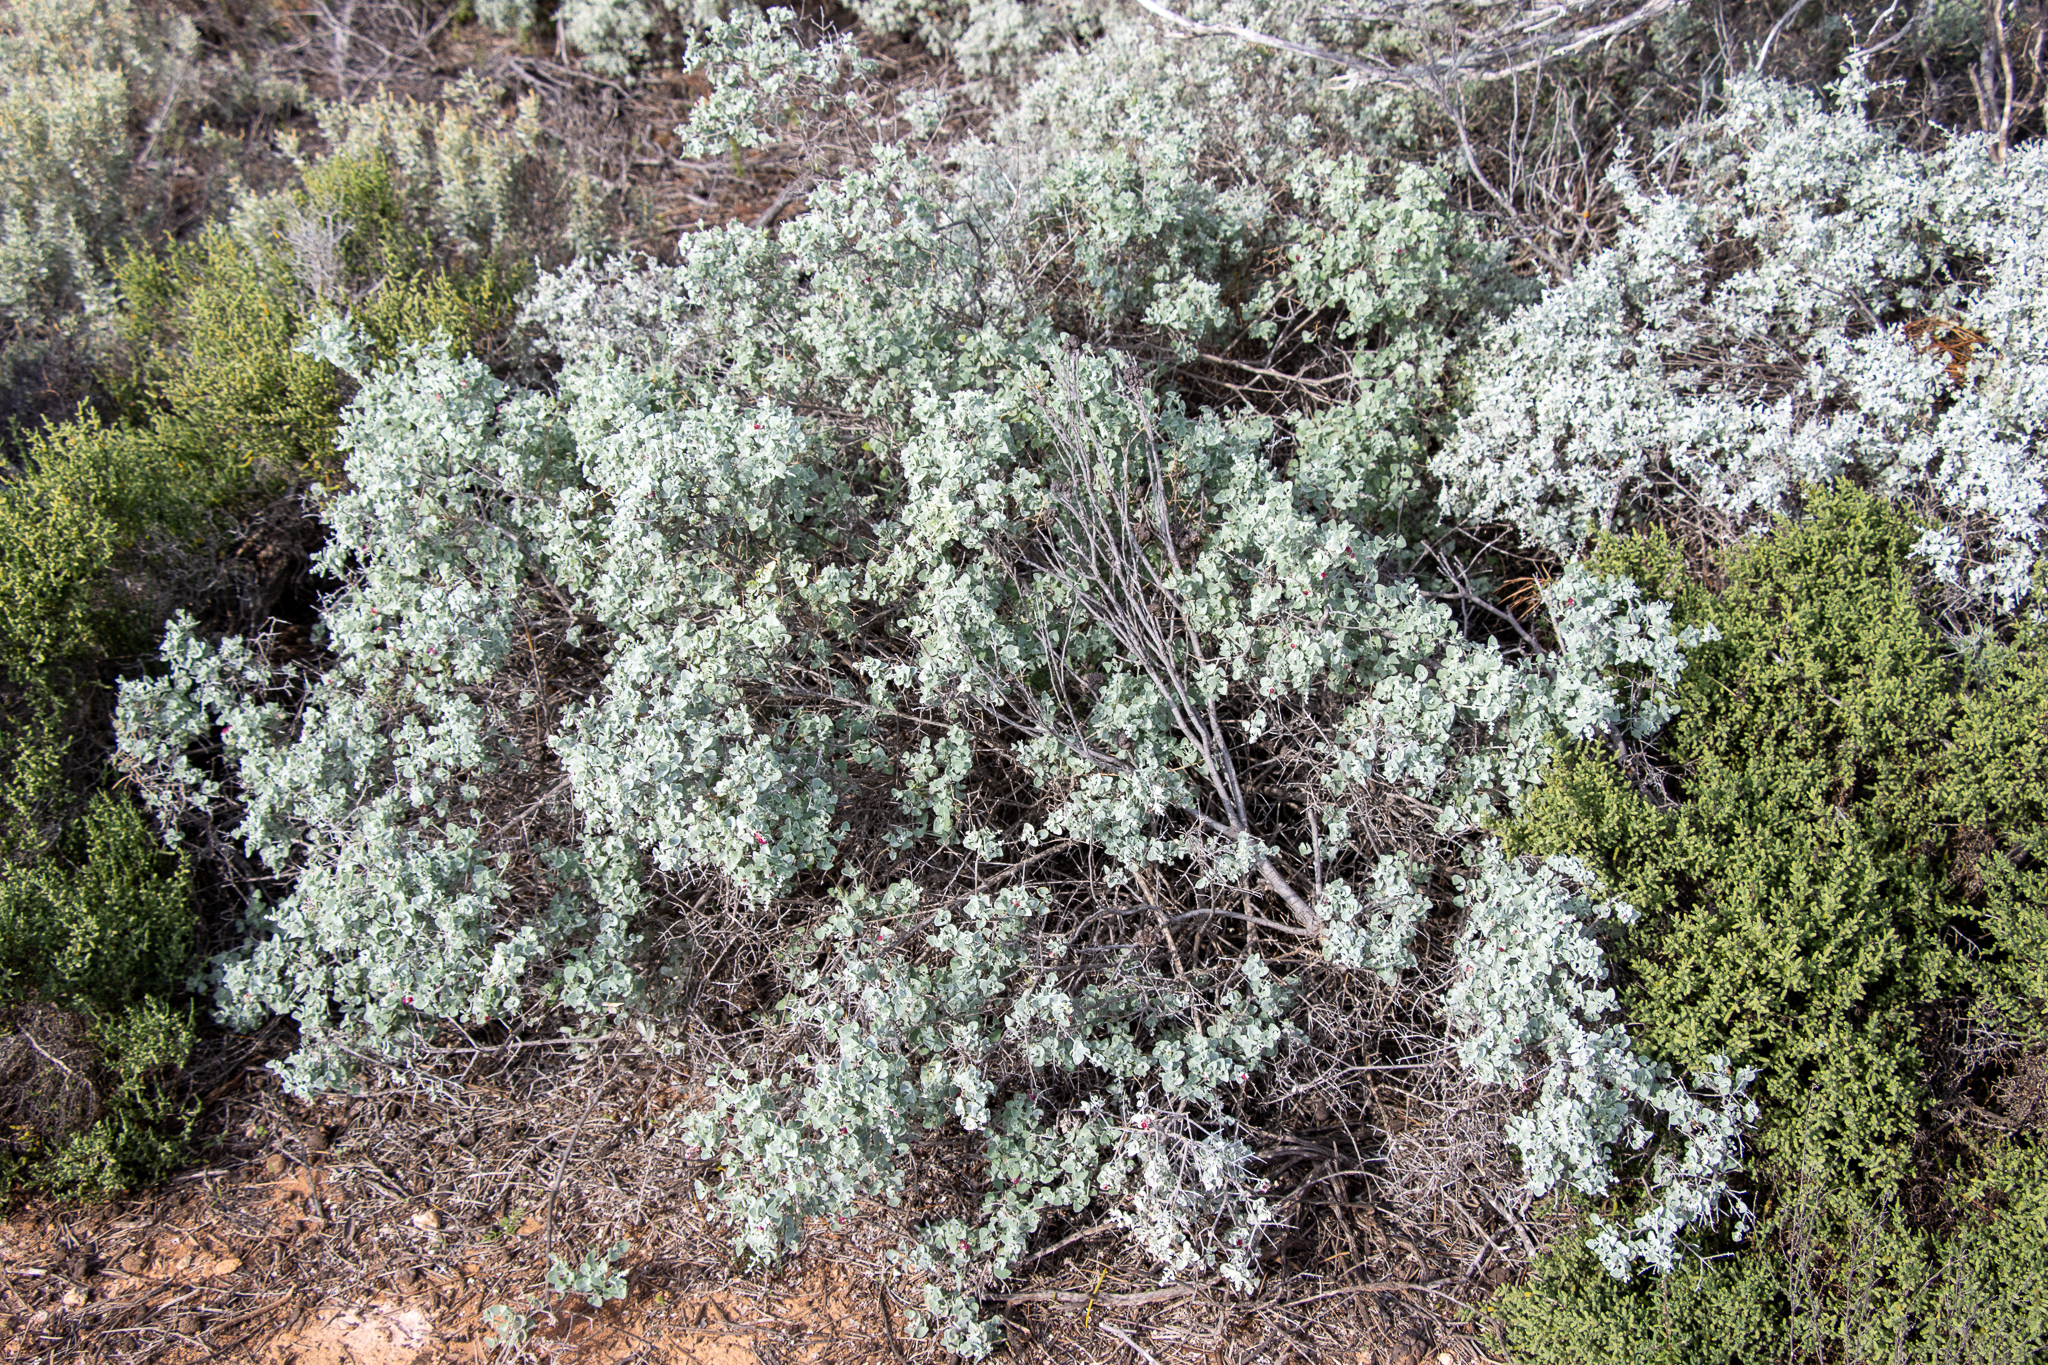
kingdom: Plantae
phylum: Tracheophyta
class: Magnoliopsida
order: Caryophyllales
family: Amaranthaceae
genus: Chenopodium
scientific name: Chenopodium spinescens
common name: Berry-saltbush
